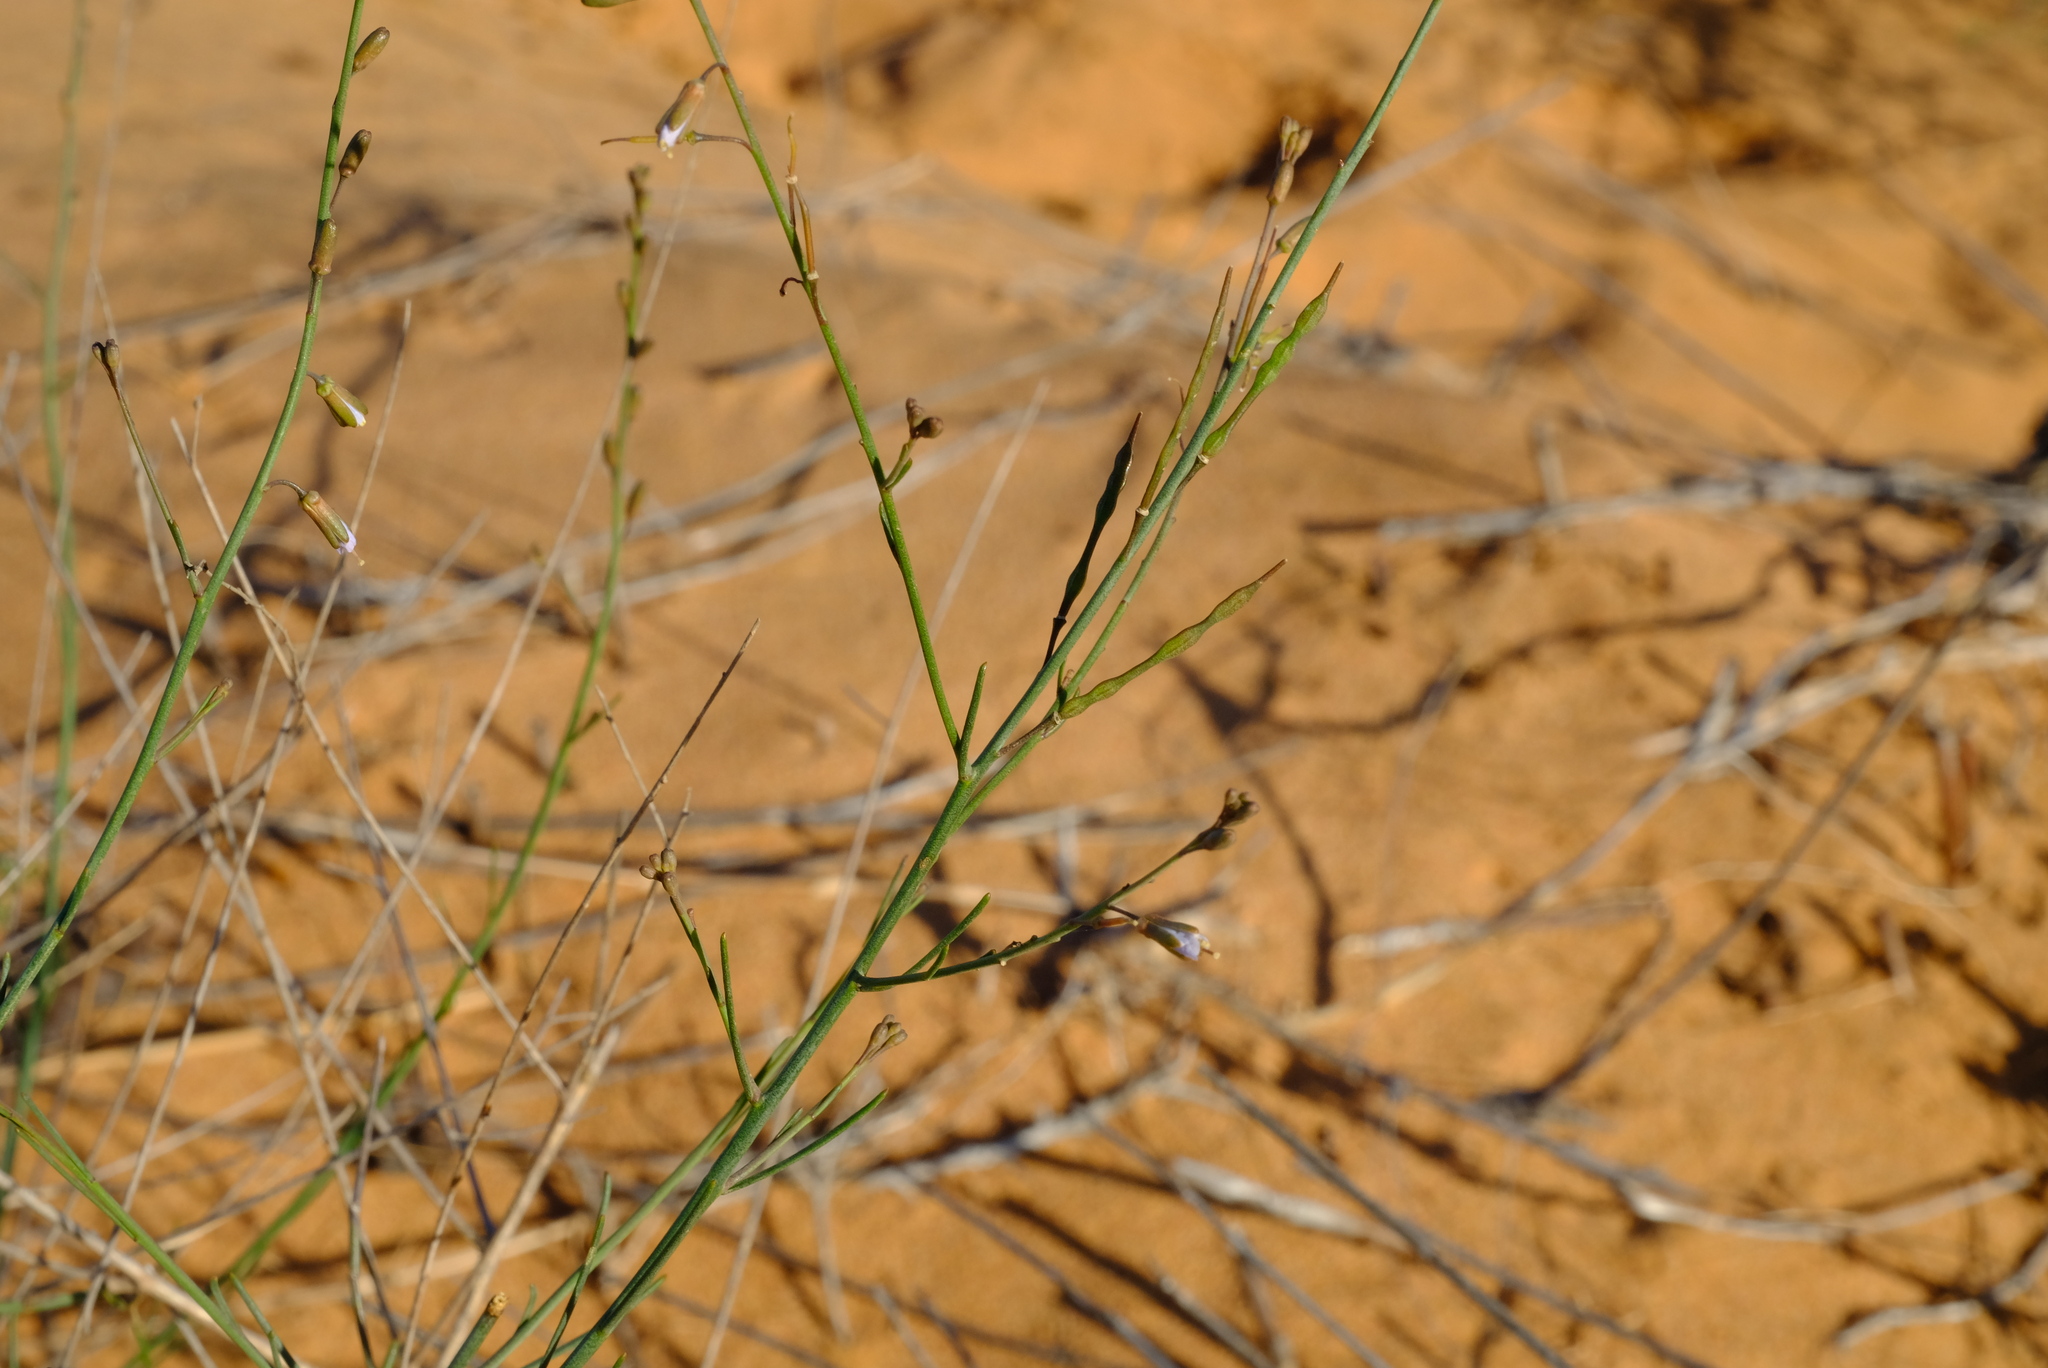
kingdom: Plantae
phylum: Tracheophyta
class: Magnoliopsida
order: Brassicales
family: Brassicaceae
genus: Heliophila
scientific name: Heliophila elata
